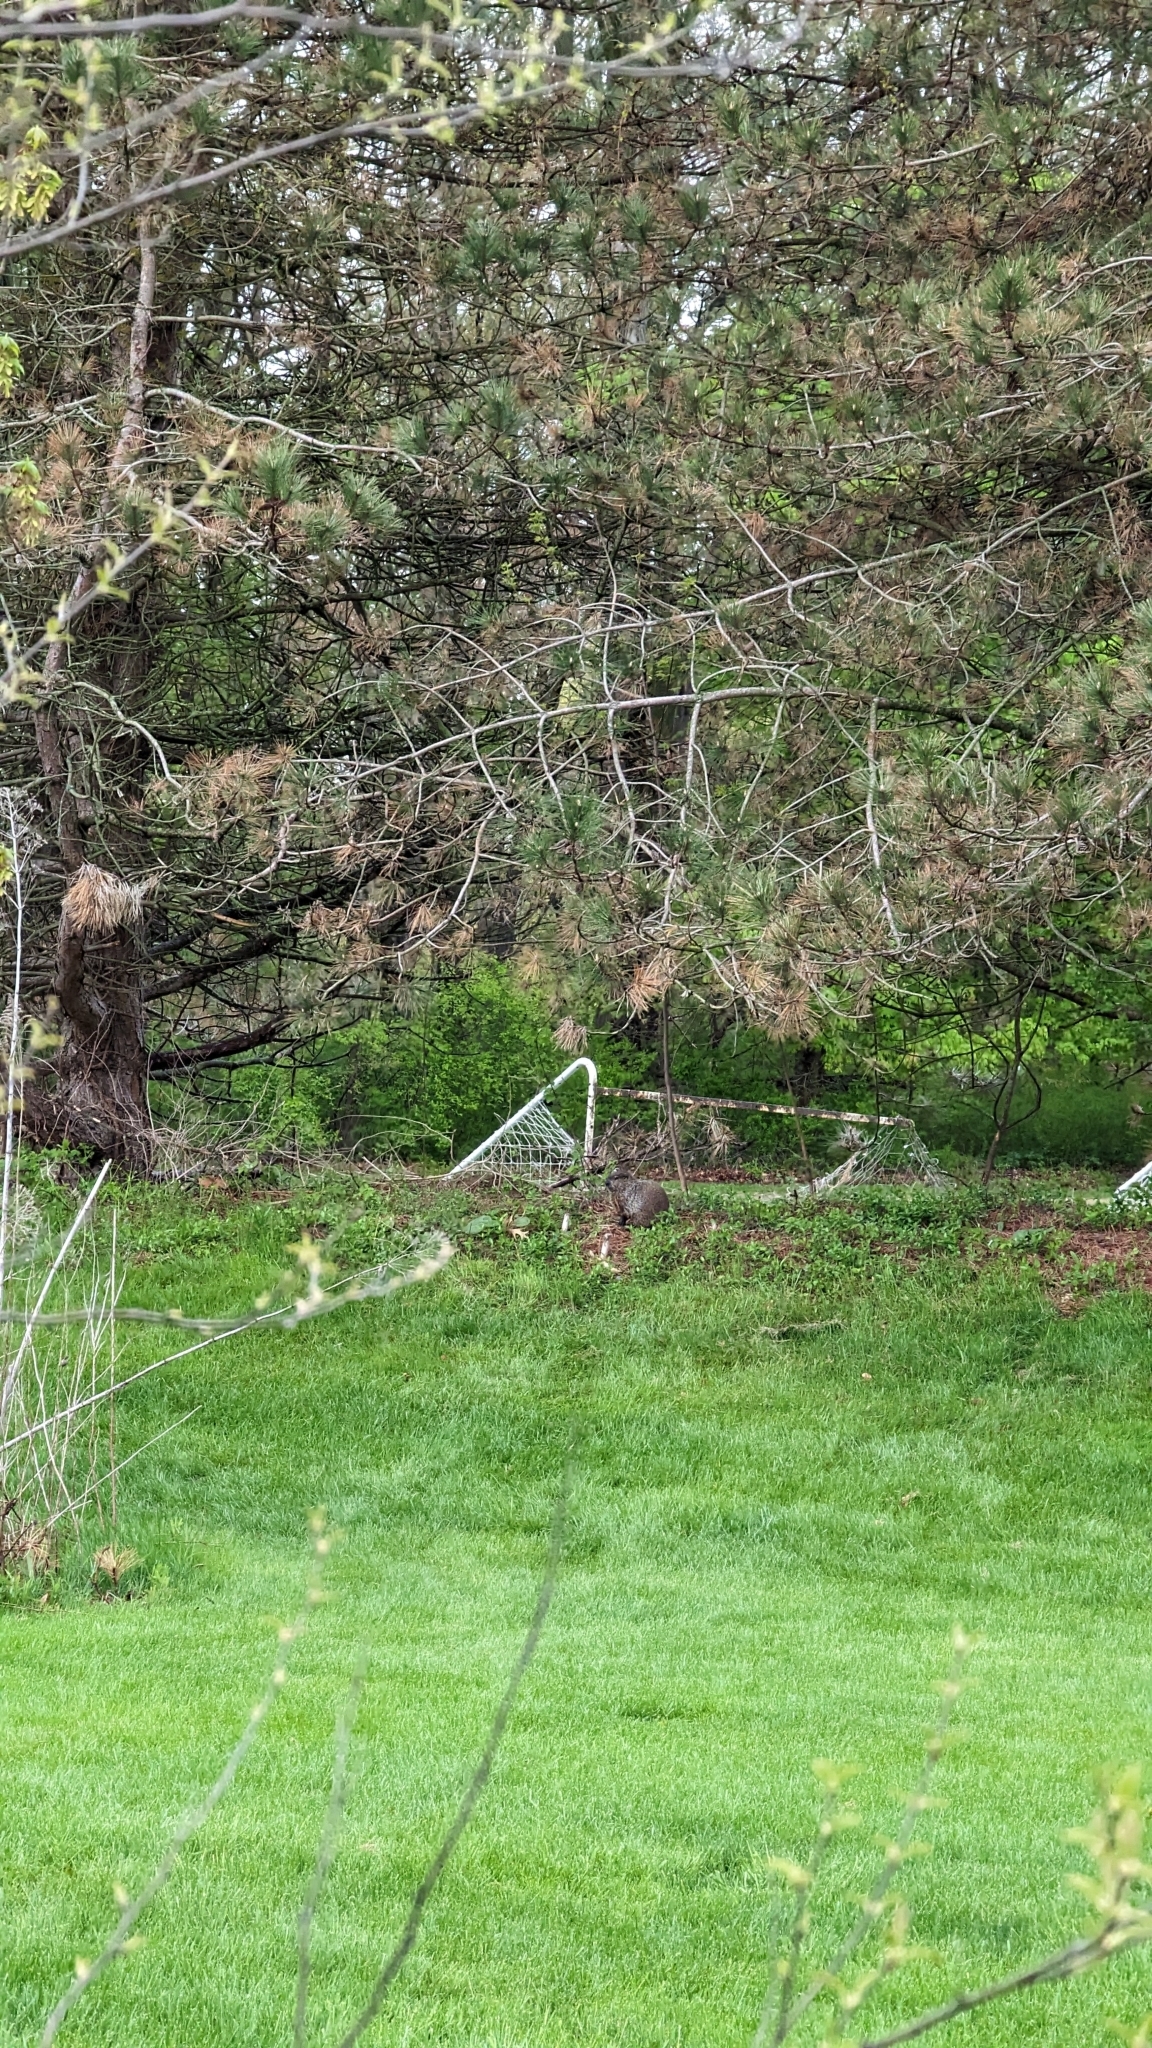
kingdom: Animalia
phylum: Chordata
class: Mammalia
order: Rodentia
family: Sciuridae
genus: Marmota
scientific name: Marmota monax
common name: Groundhog
